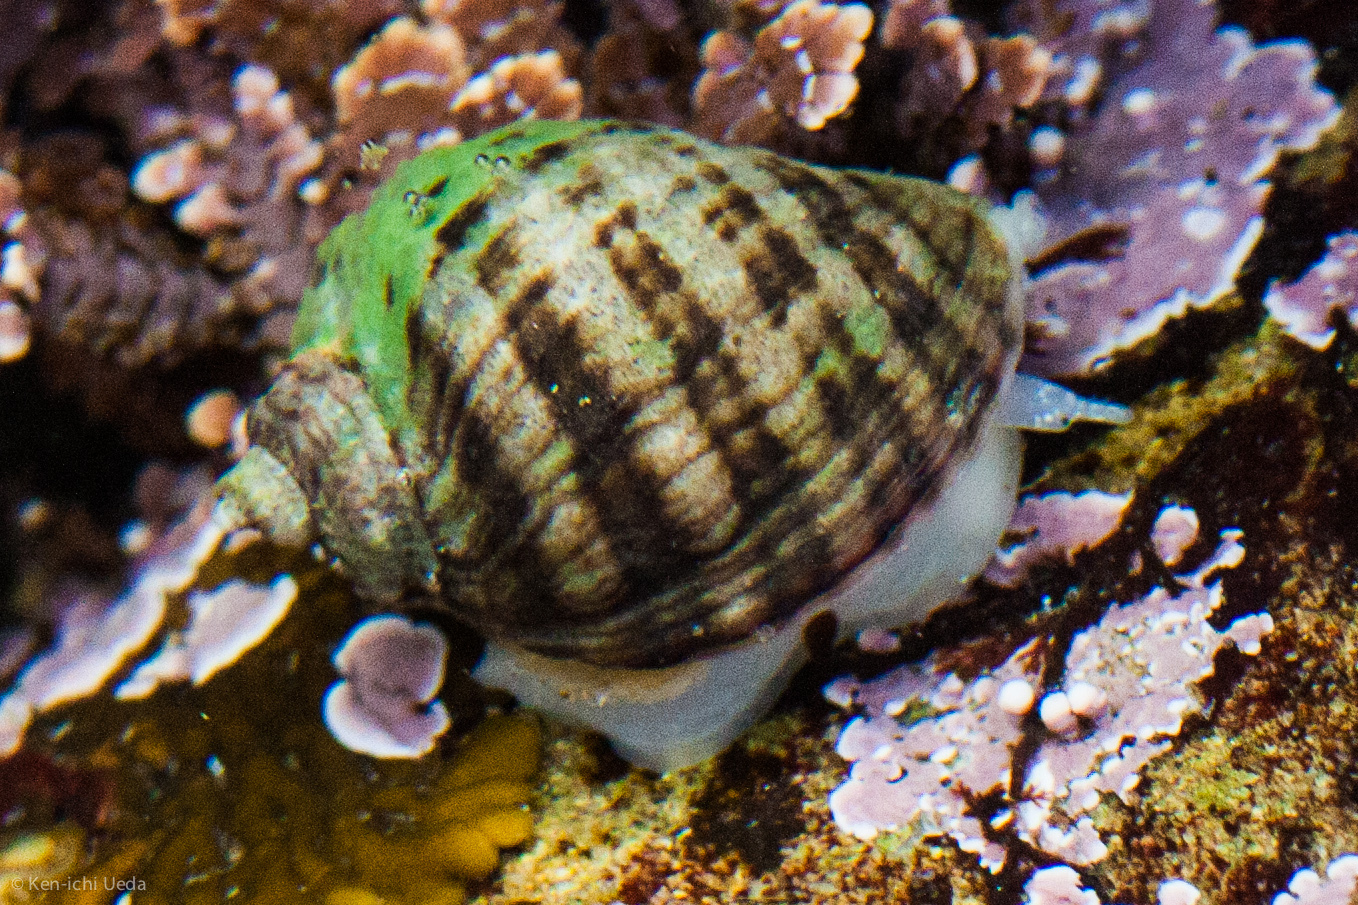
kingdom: Animalia
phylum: Mollusca
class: Gastropoda
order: Neogastropoda
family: Muricidae
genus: Nucella
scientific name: Nucella ostrina
